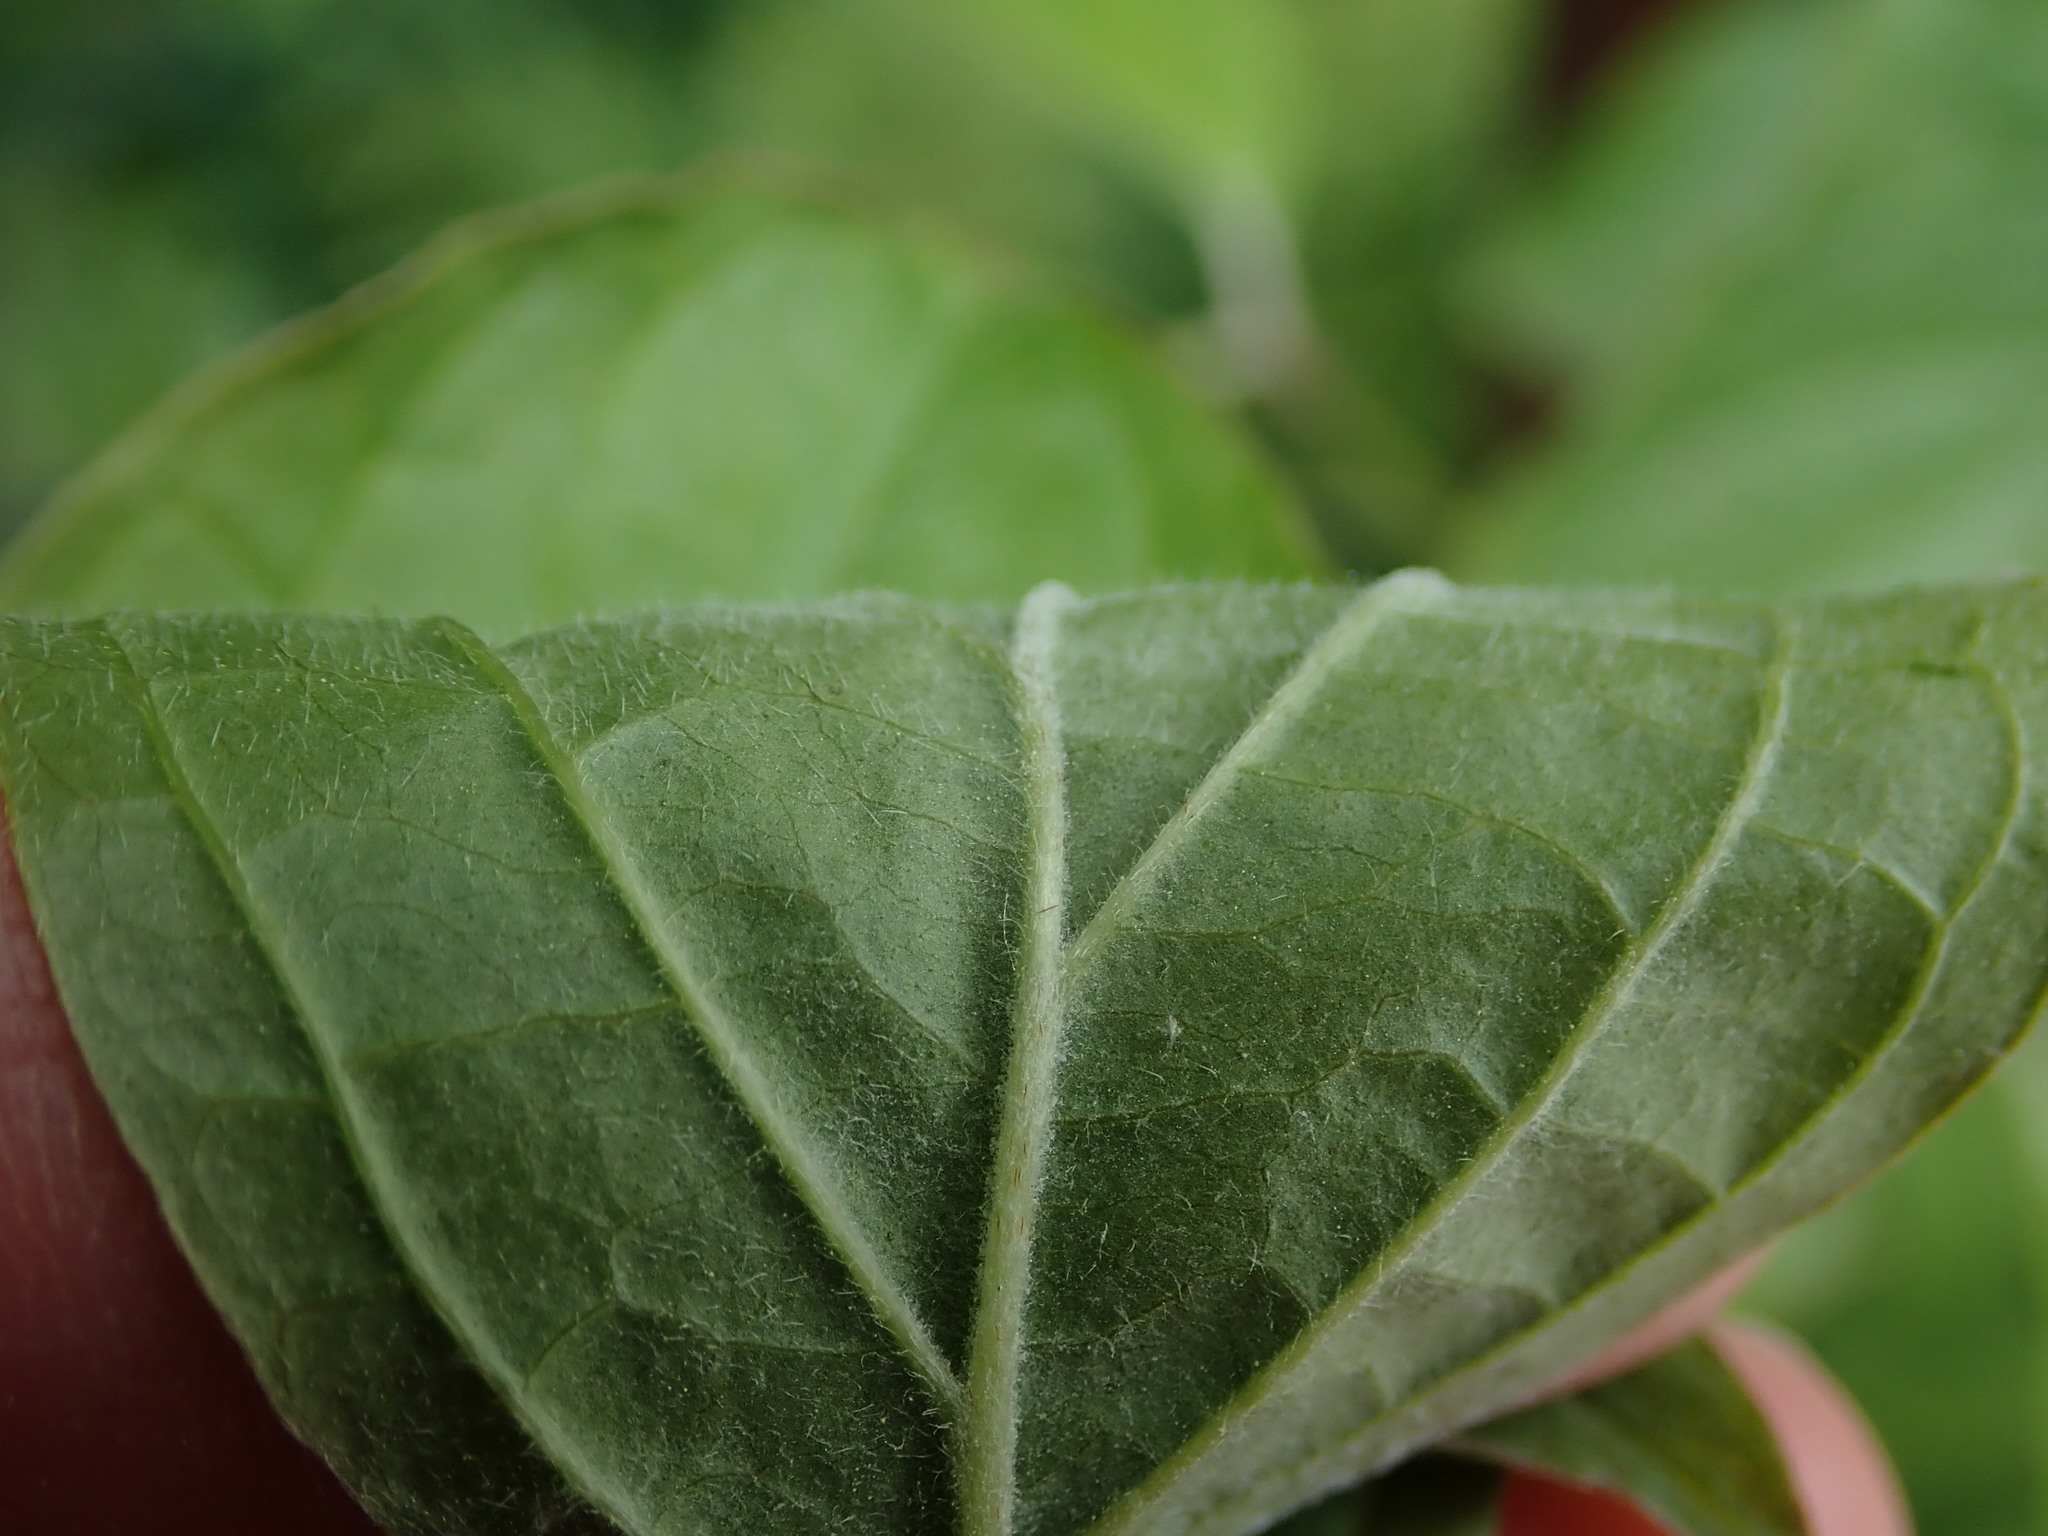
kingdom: Plantae
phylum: Tracheophyta
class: Magnoliopsida
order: Cornales
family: Cornaceae
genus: Cornus
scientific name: Cornus sanguinea
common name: Dogwood
